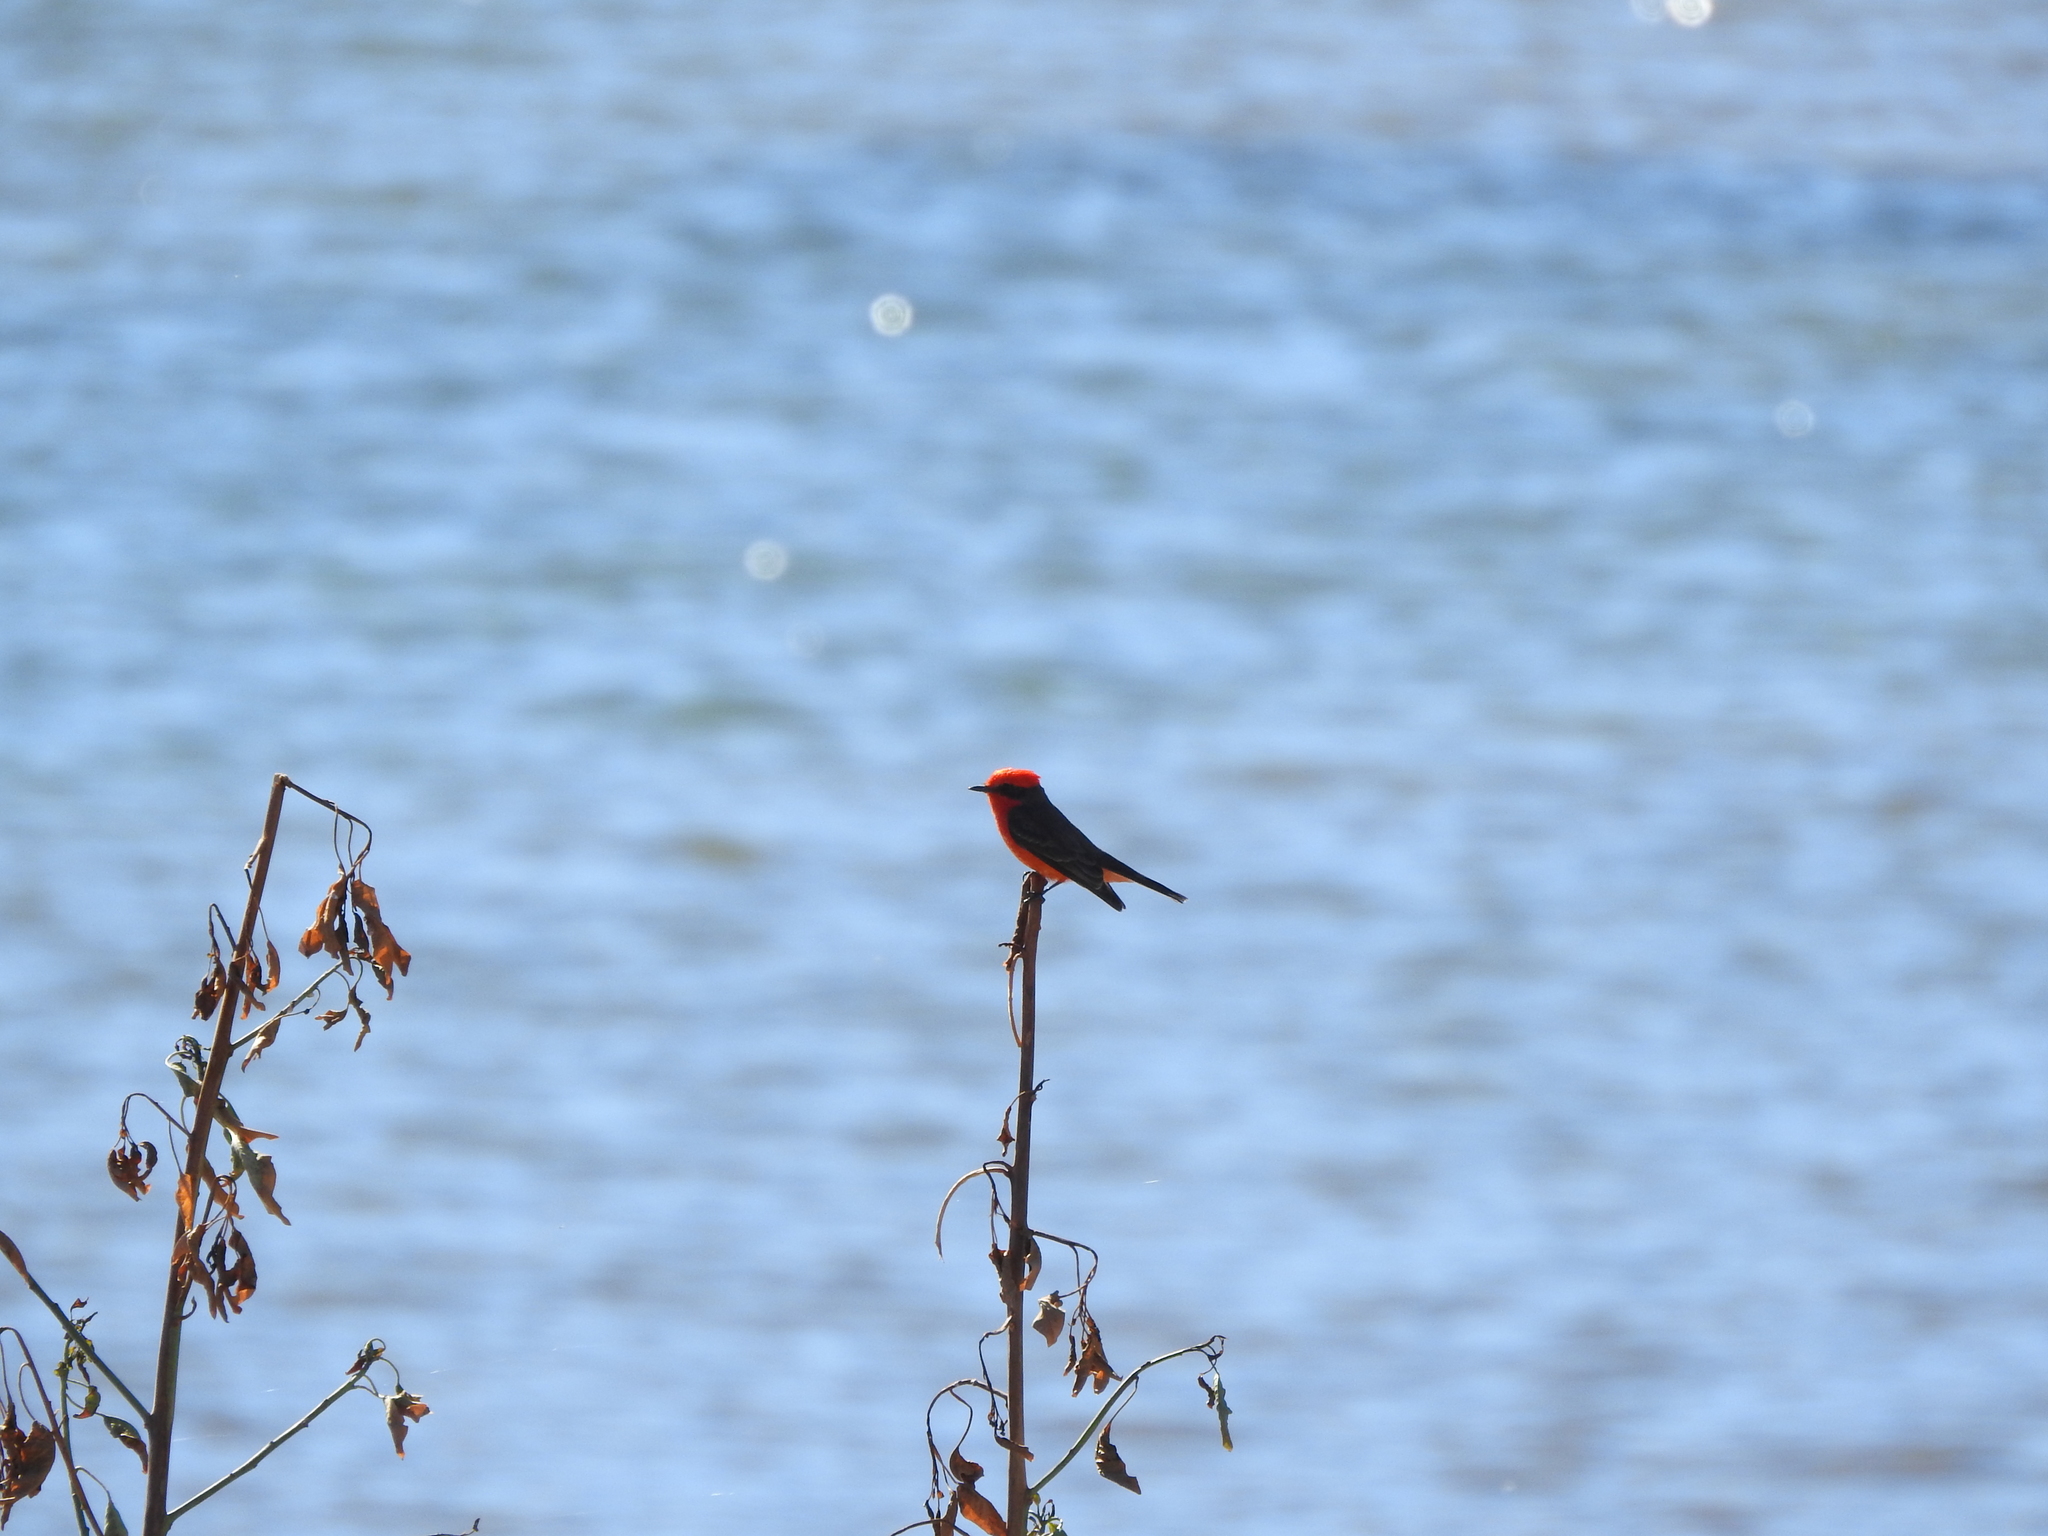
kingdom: Animalia
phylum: Chordata
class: Aves
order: Passeriformes
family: Tyrannidae
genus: Pyrocephalus
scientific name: Pyrocephalus rubinus
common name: Vermilion flycatcher
